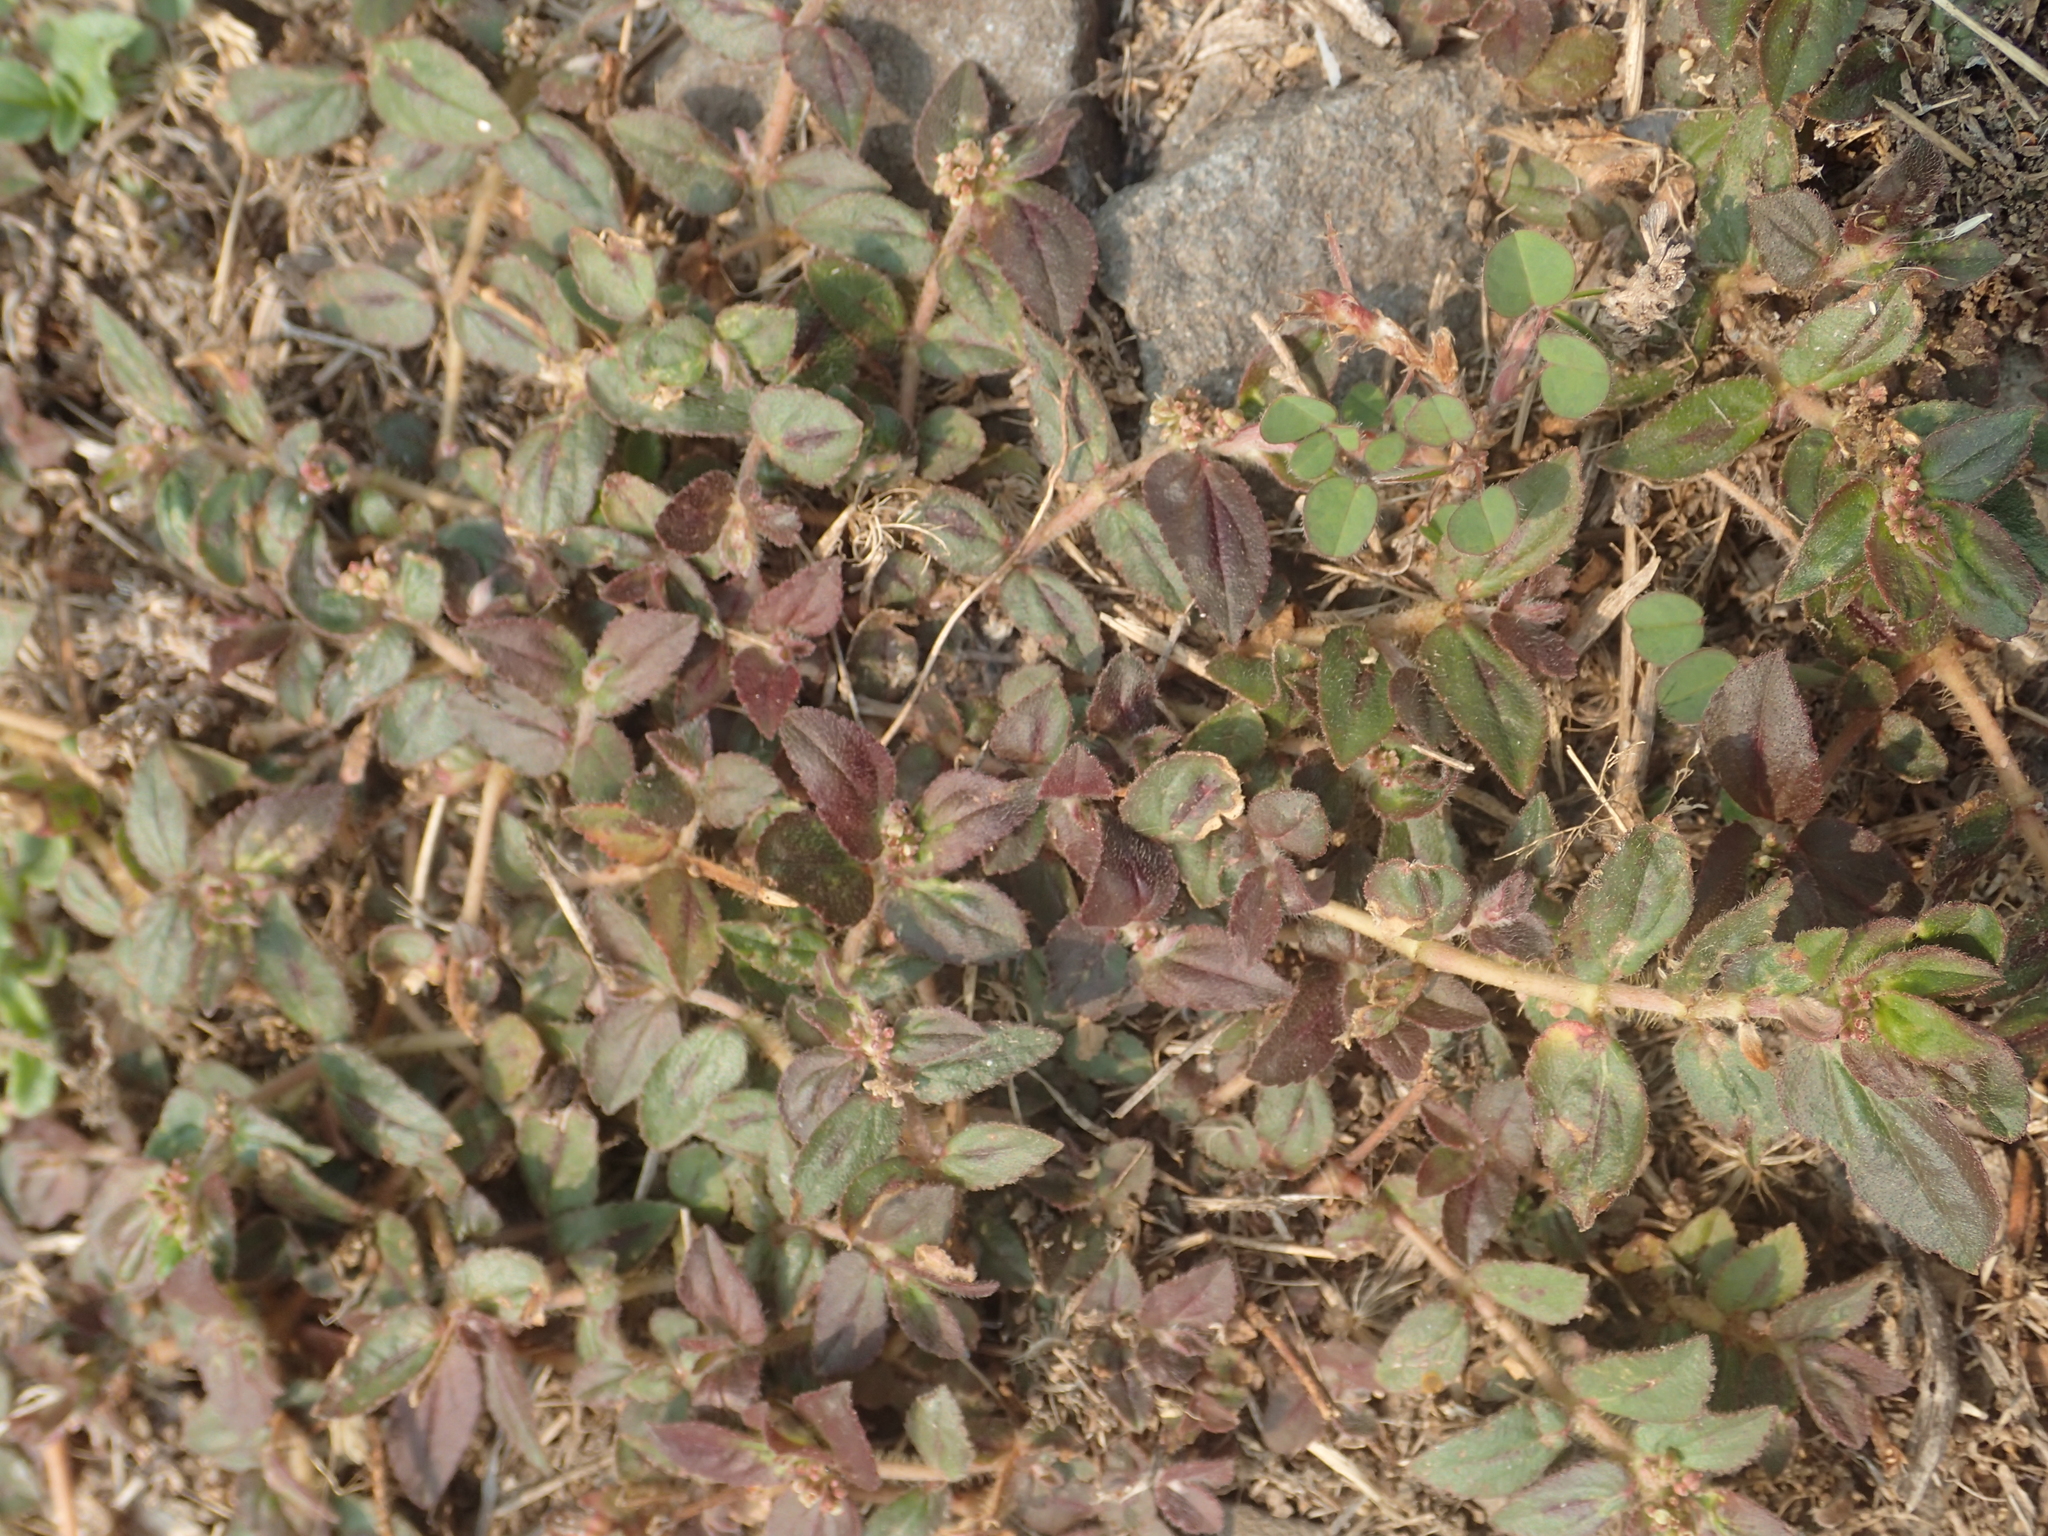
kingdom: Plantae
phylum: Tracheophyta
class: Magnoliopsida
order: Malpighiales
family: Euphorbiaceae
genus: Euphorbia
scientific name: Euphorbia hirta
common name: Pillpod sandmat
